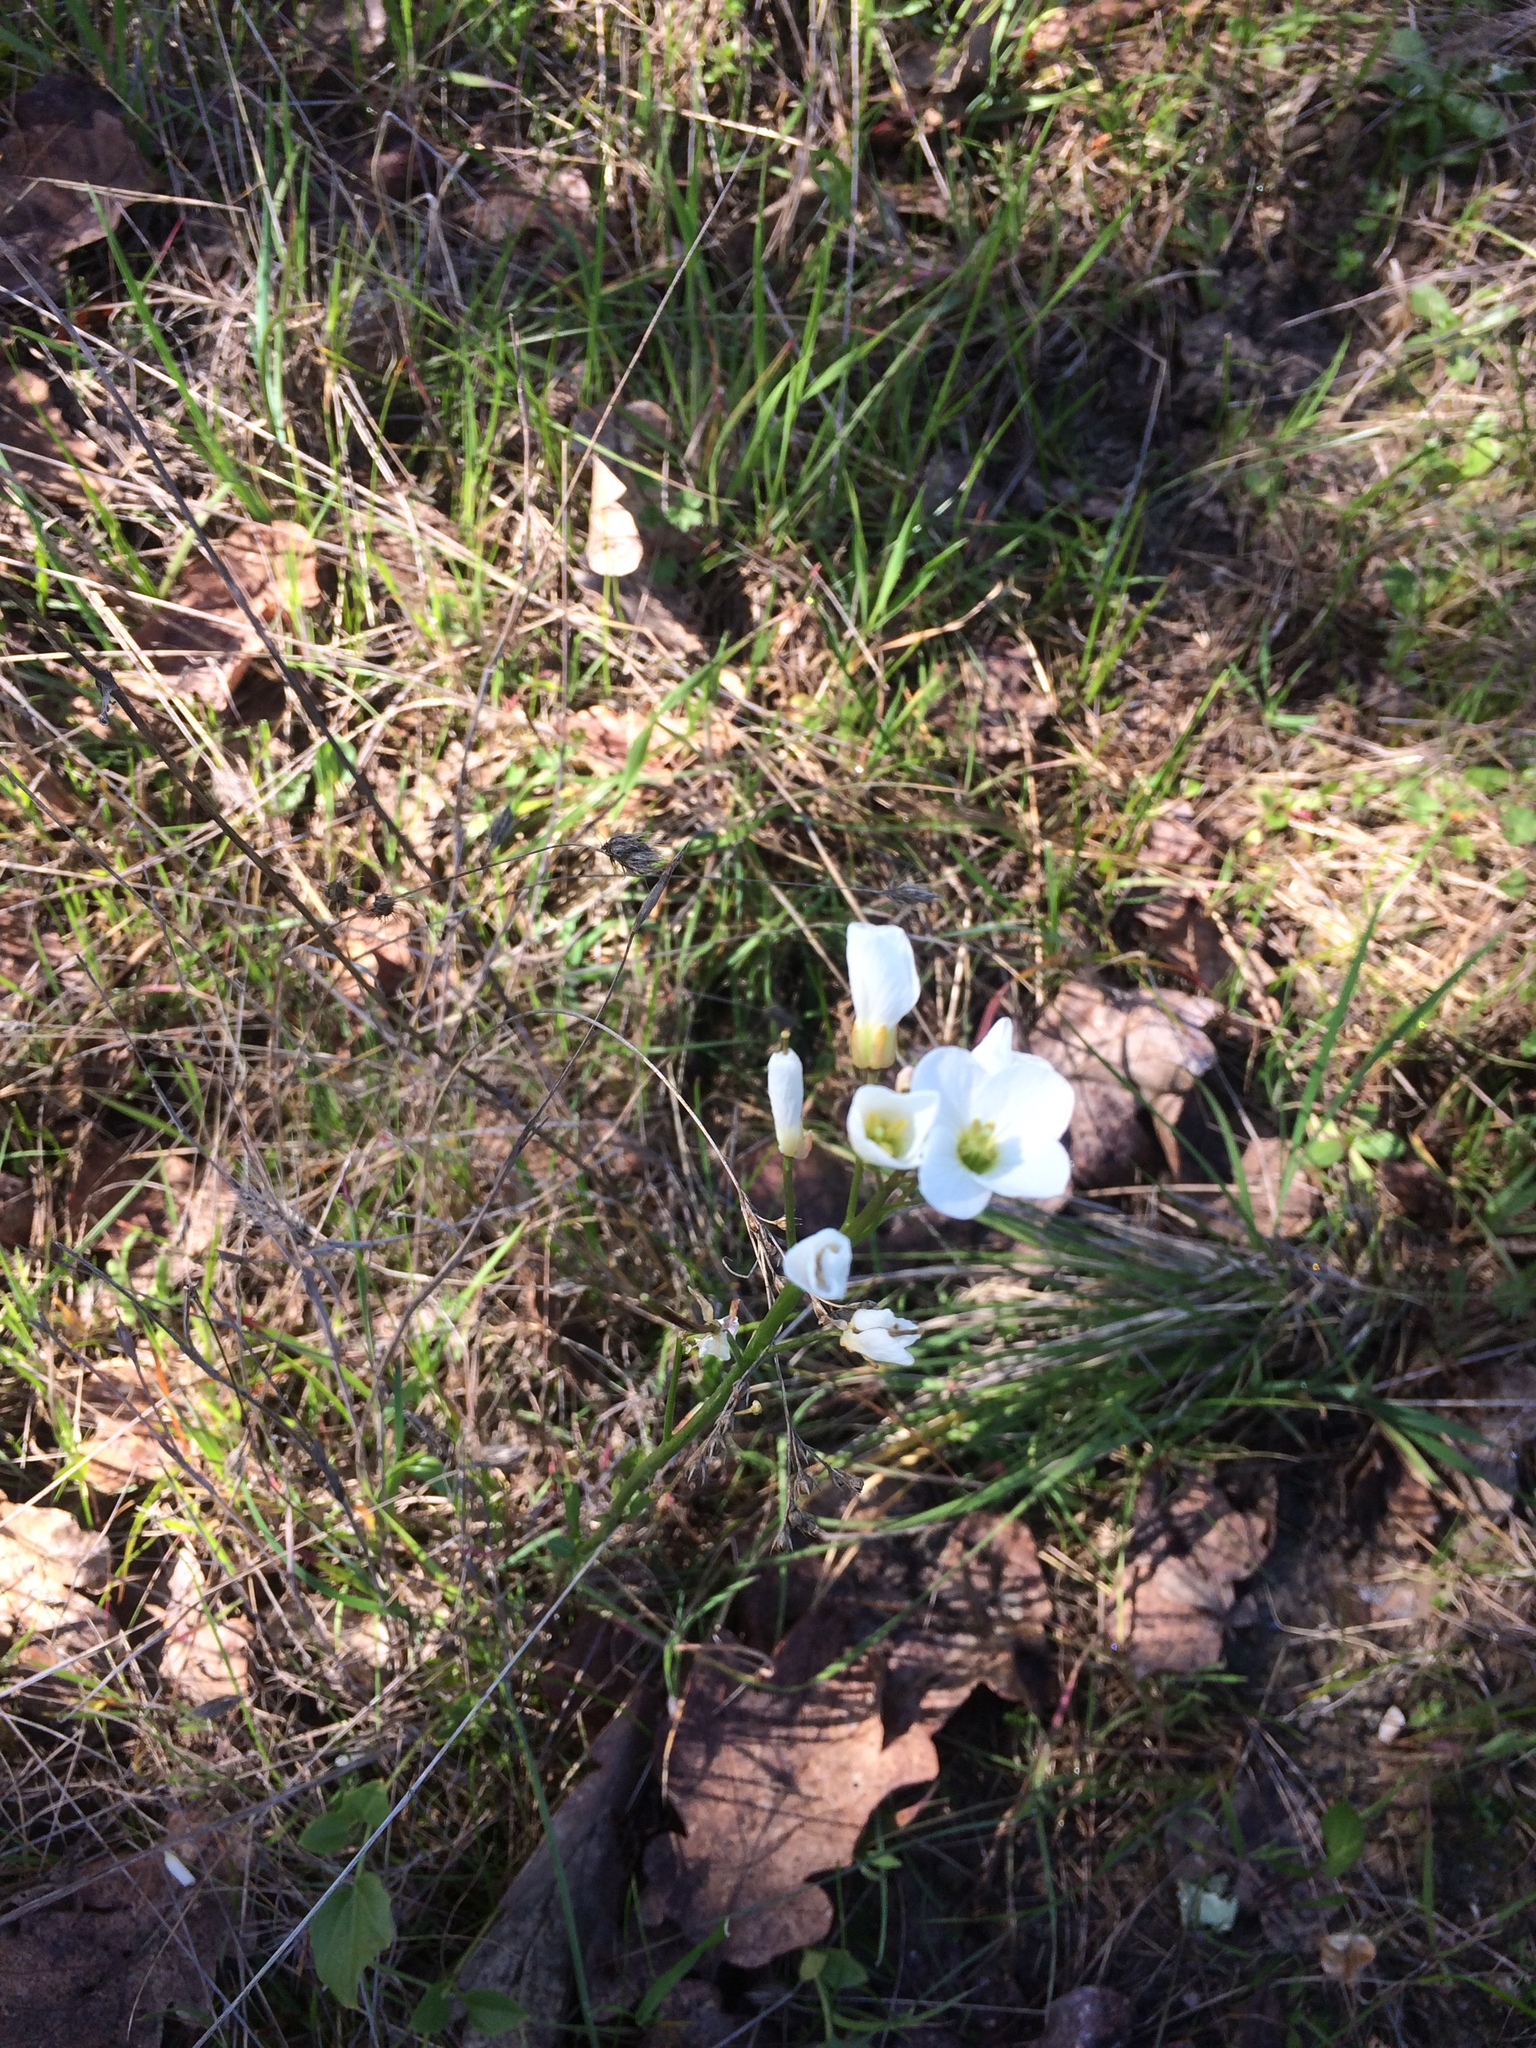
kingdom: Plantae
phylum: Tracheophyta
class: Magnoliopsida
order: Brassicales
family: Brassicaceae
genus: Cardamine
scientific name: Cardamine californica
